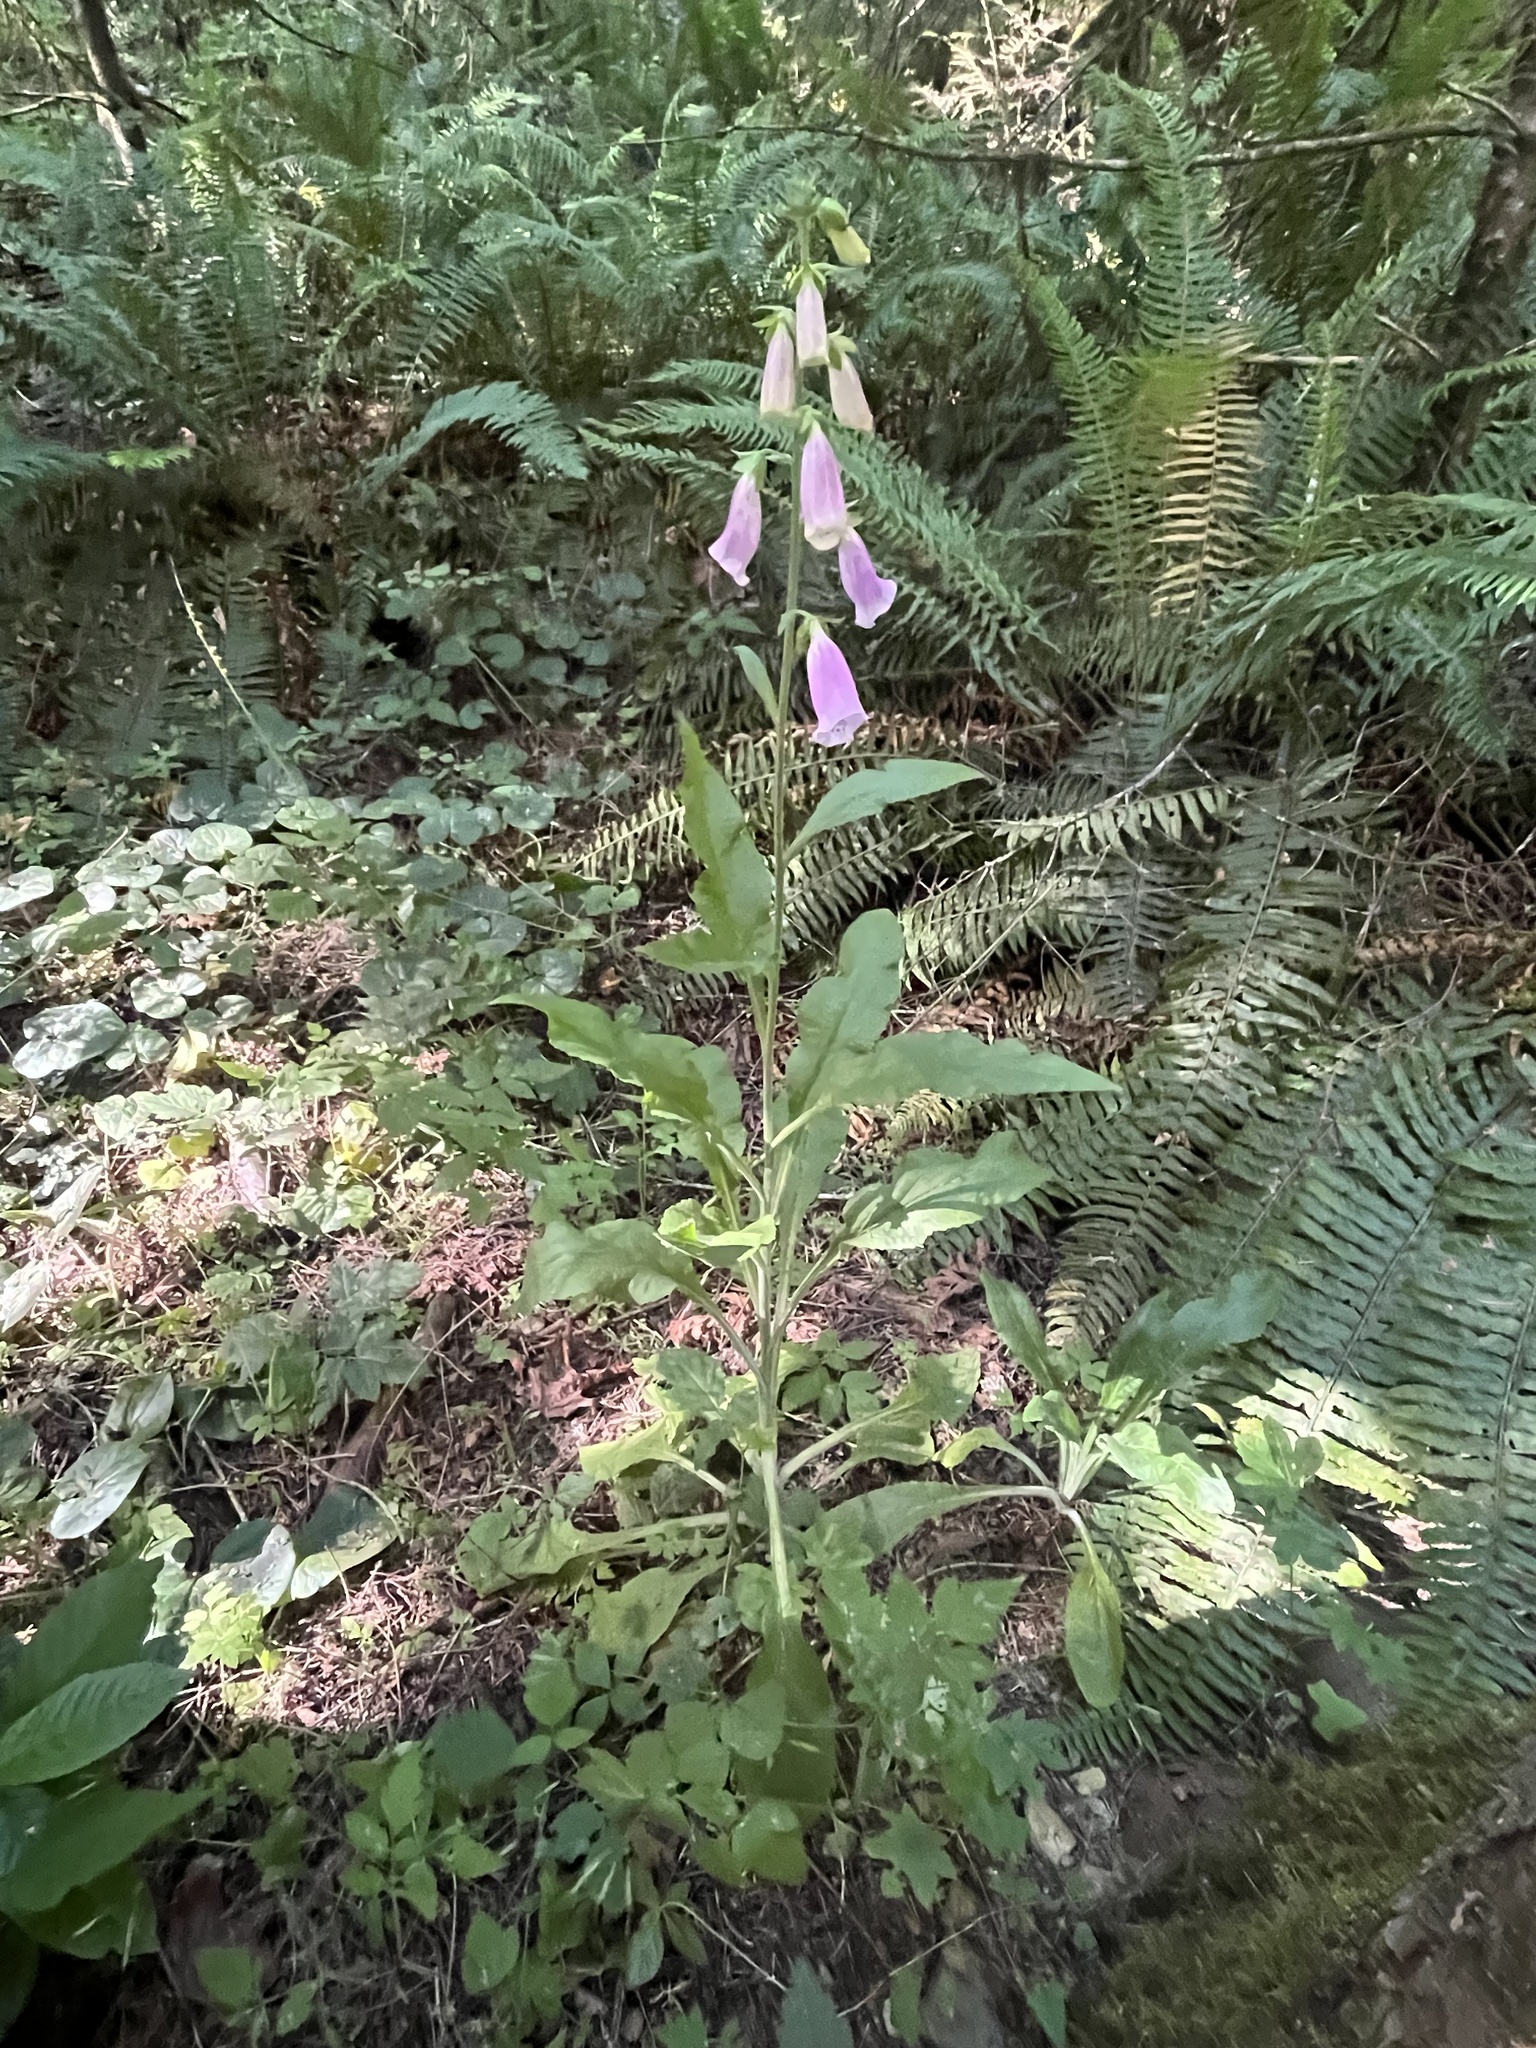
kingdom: Plantae
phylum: Tracheophyta
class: Magnoliopsida
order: Lamiales
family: Plantaginaceae
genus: Digitalis
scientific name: Digitalis purpurea
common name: Foxglove
